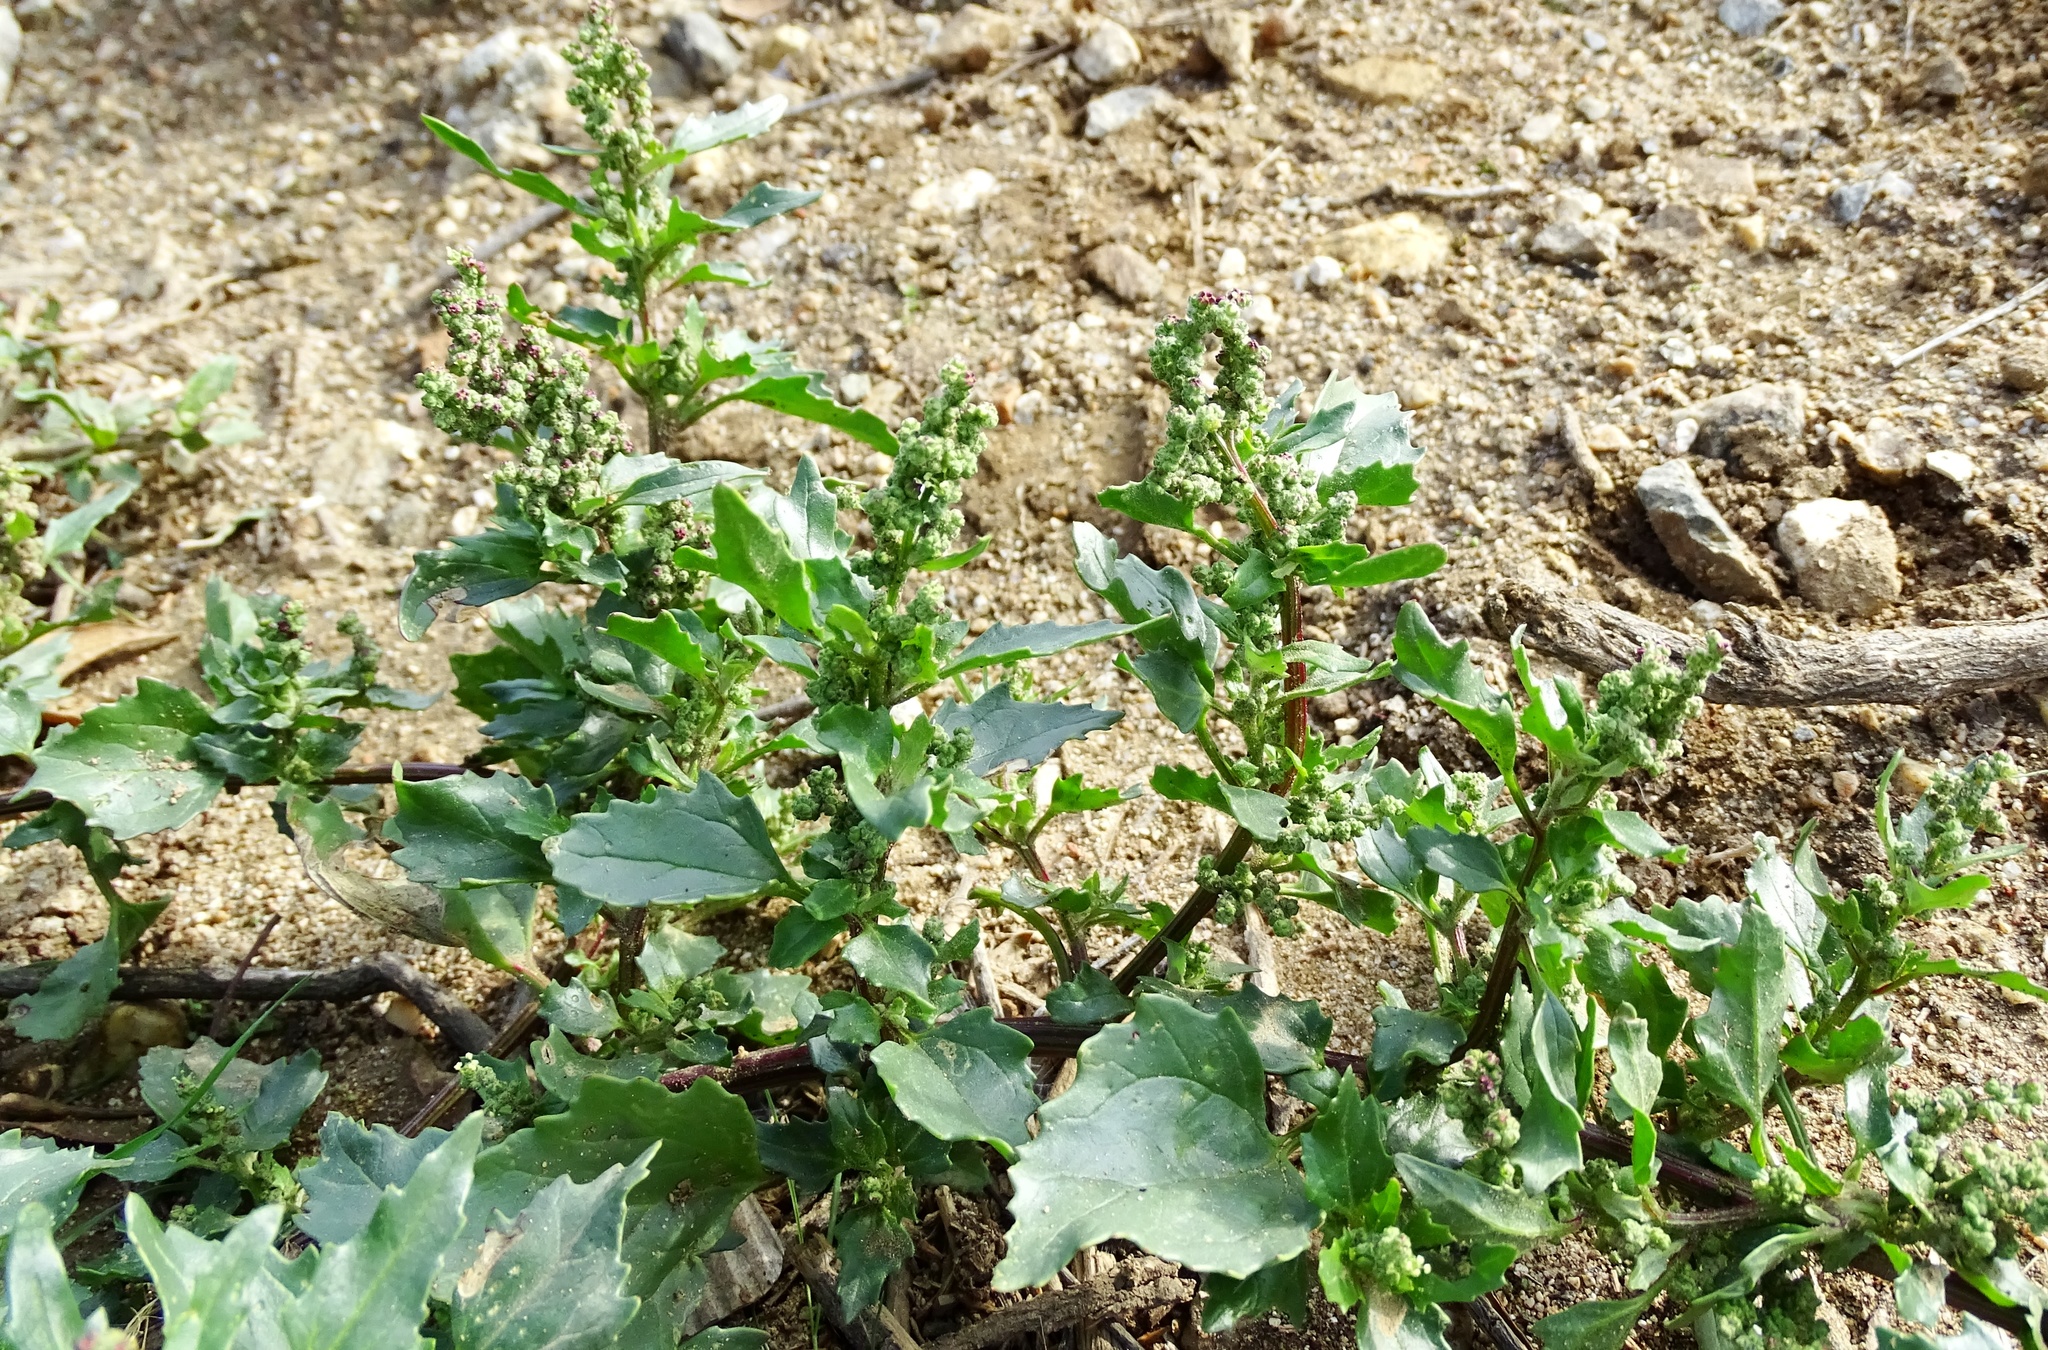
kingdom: Plantae
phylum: Tracheophyta
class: Magnoliopsida
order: Caryophyllales
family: Amaranthaceae
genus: Chenopodiastrum
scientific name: Chenopodiastrum murale
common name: Sowbane
